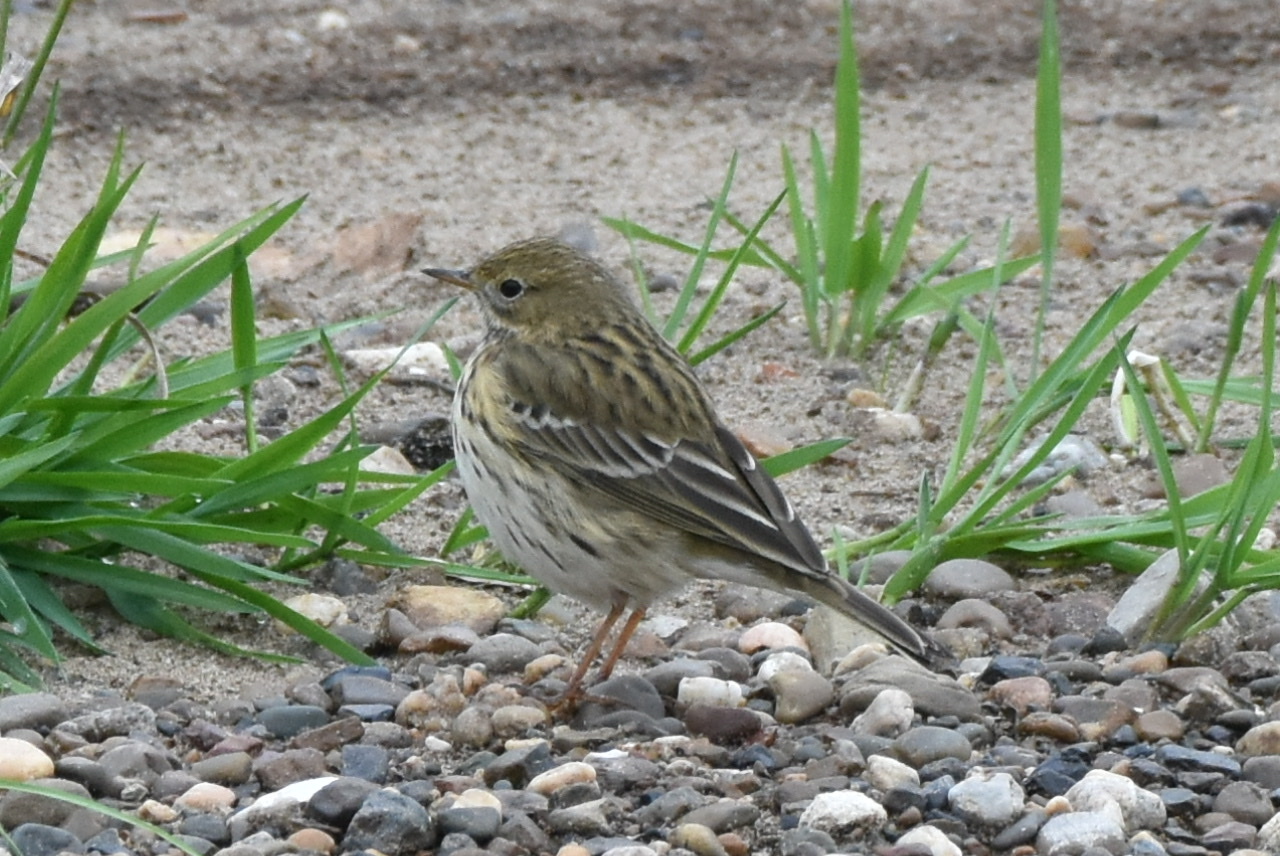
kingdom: Animalia
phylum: Chordata
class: Aves
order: Passeriformes
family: Motacillidae
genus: Anthus
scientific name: Anthus pratensis
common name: Meadow pipit
